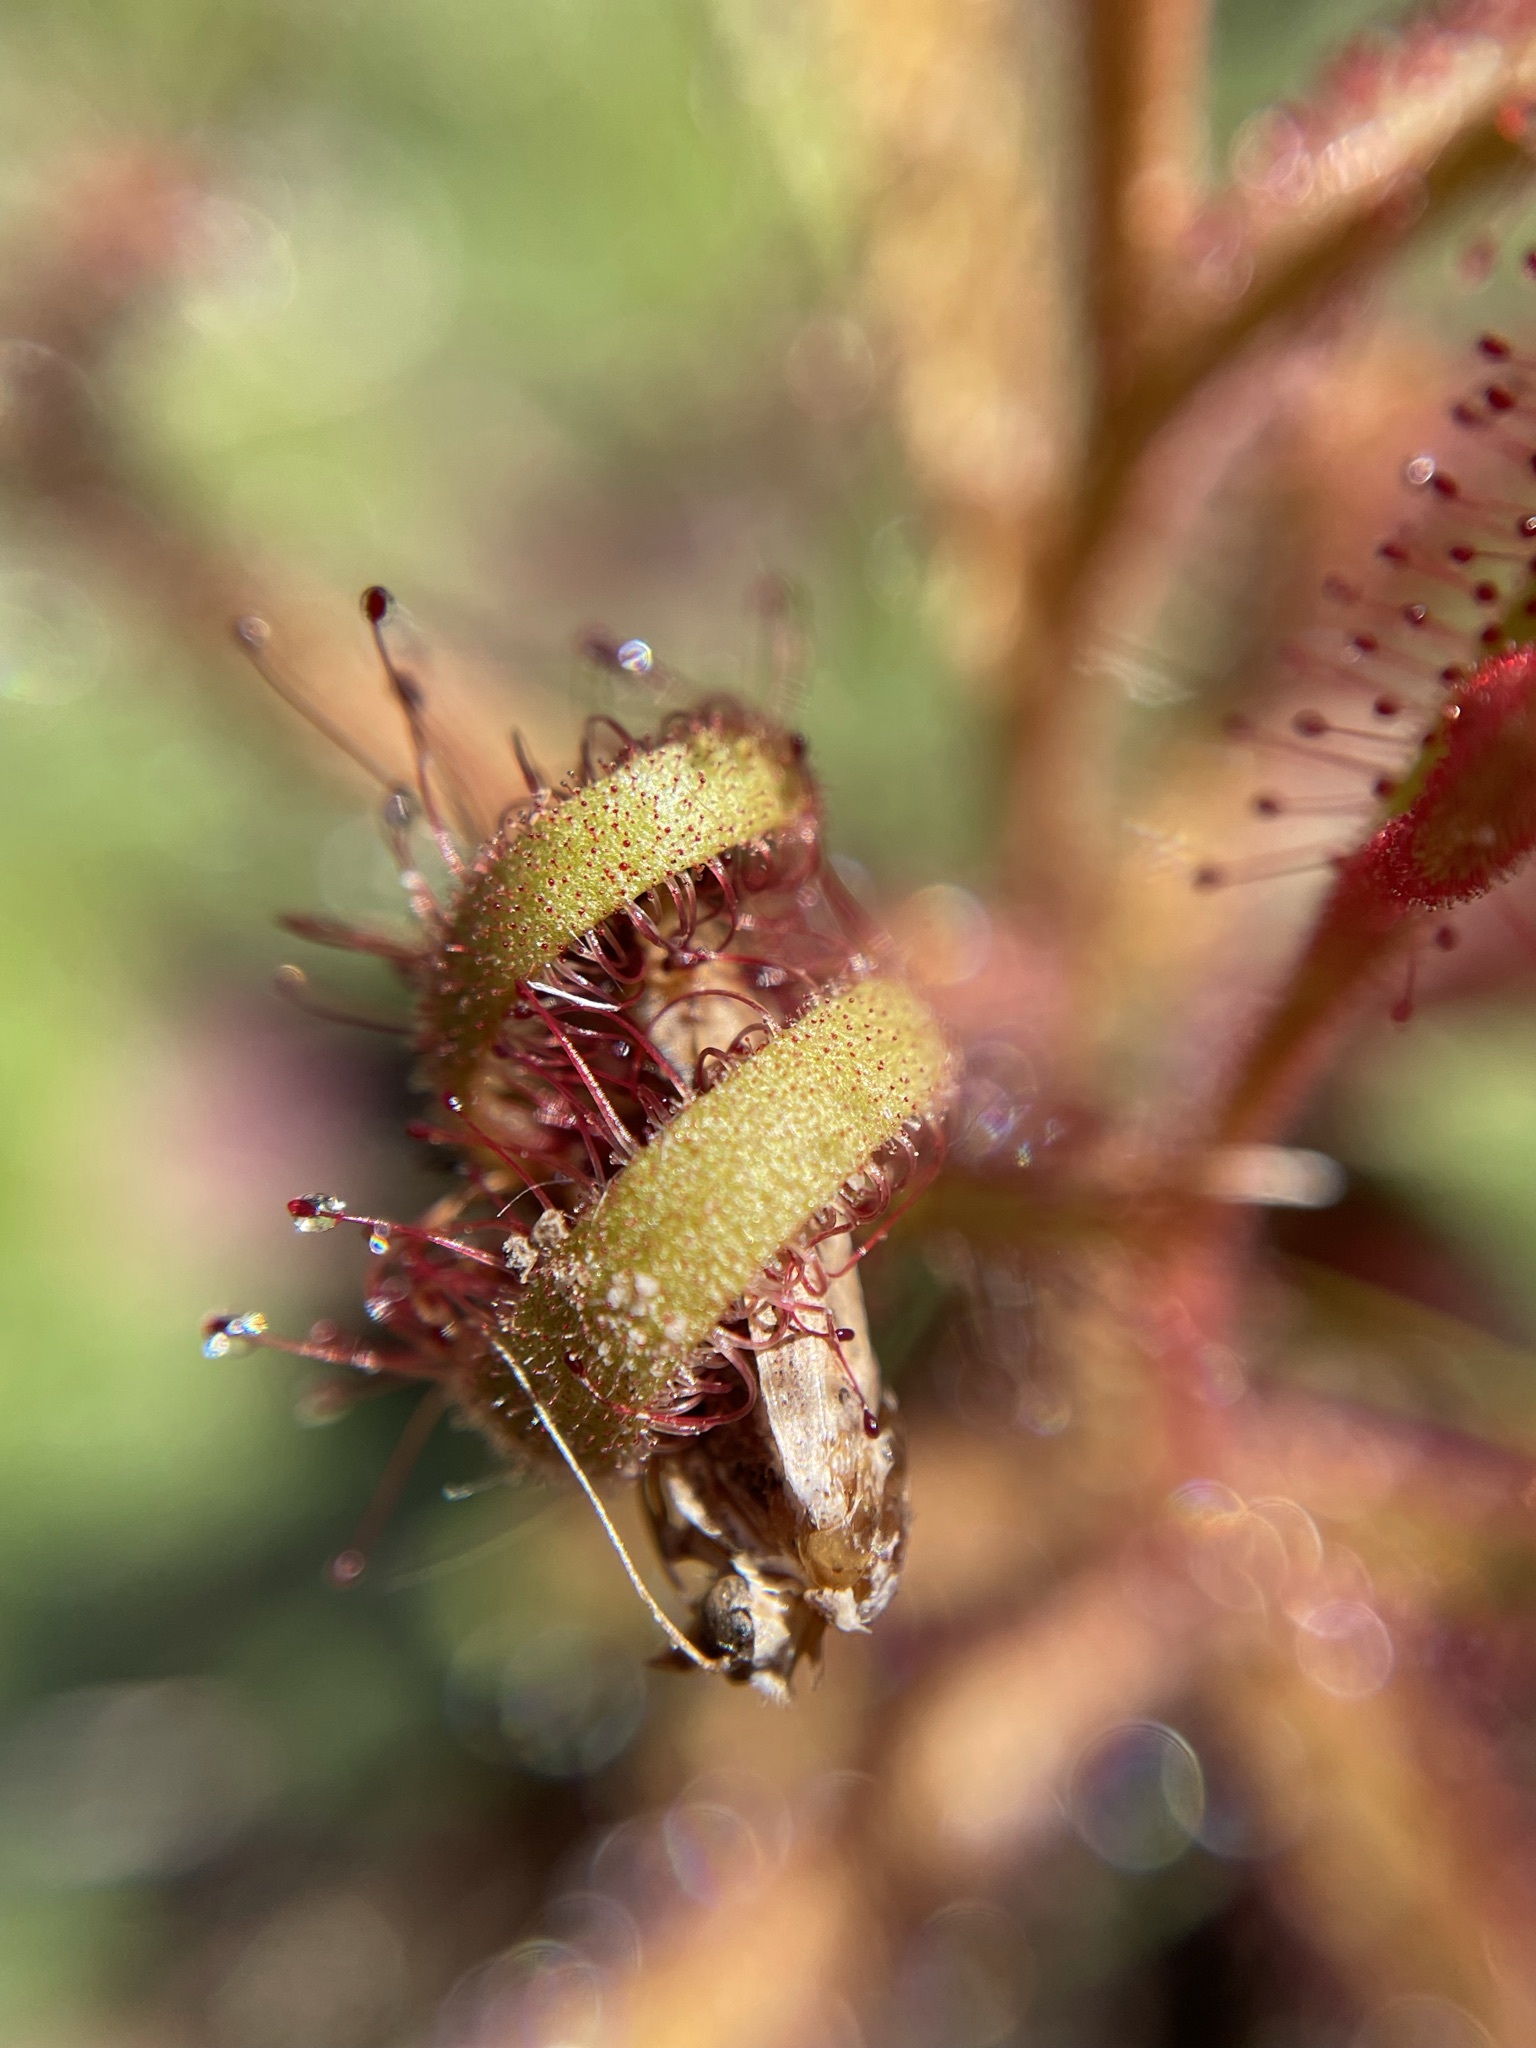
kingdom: Plantae
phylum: Tracheophyta
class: Magnoliopsida
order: Caryophyllales
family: Droseraceae
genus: Drosera
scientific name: Drosera cistiflora
